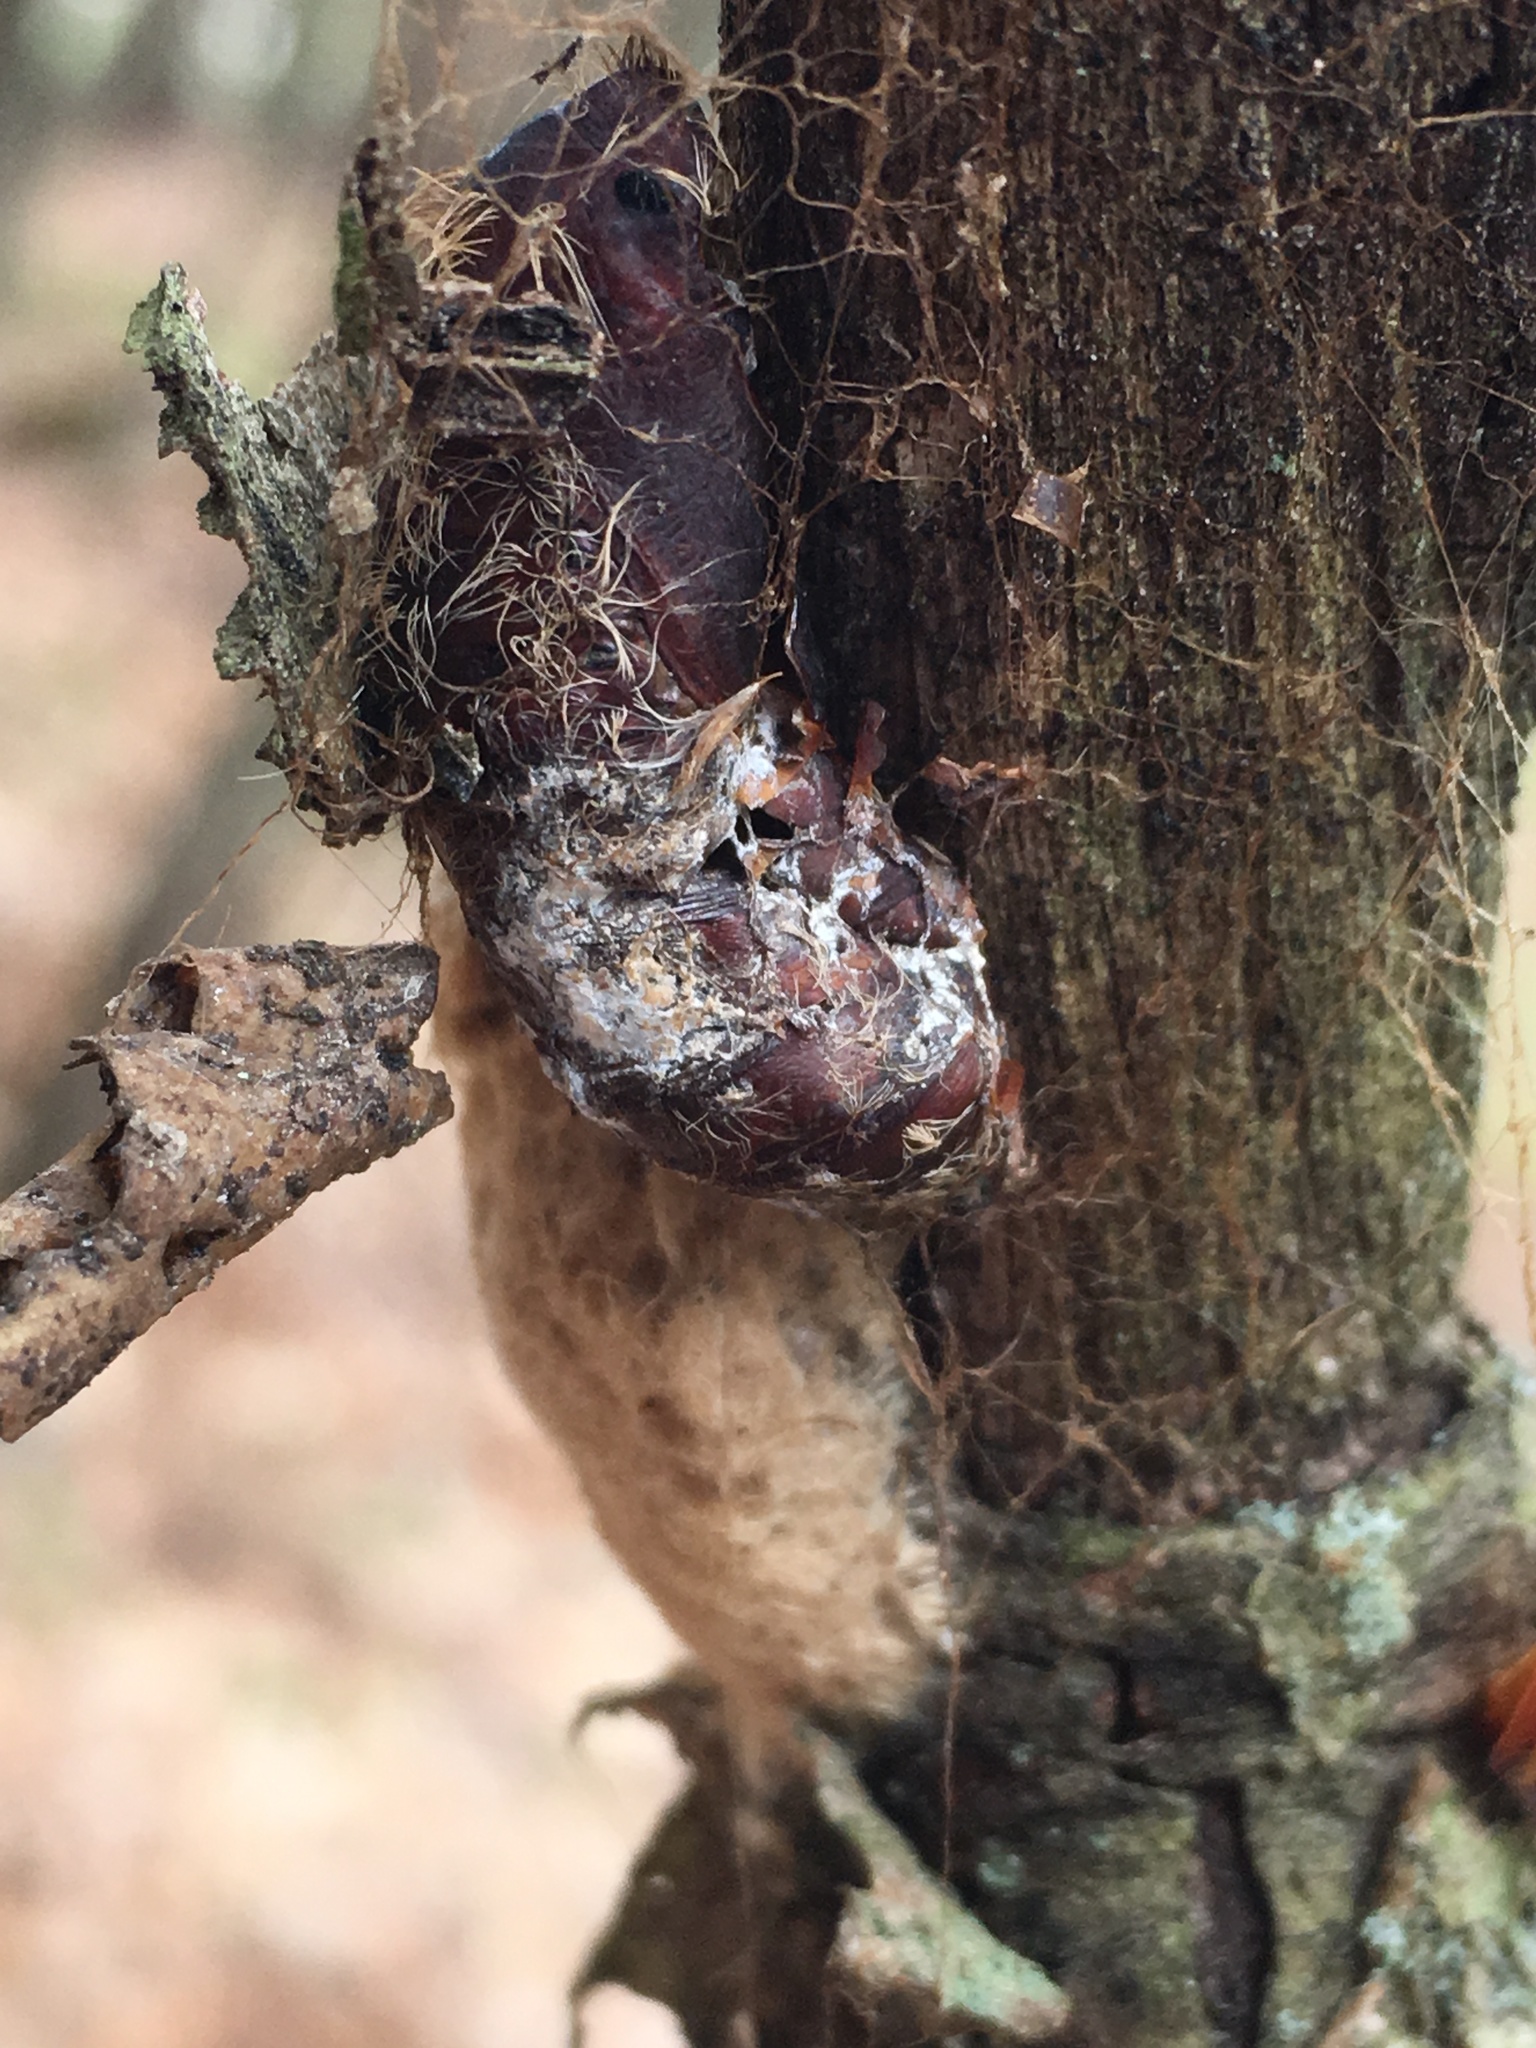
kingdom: Animalia
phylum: Arthropoda
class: Insecta
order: Lepidoptera
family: Erebidae
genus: Lymantria
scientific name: Lymantria dispar
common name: Gypsy moth
